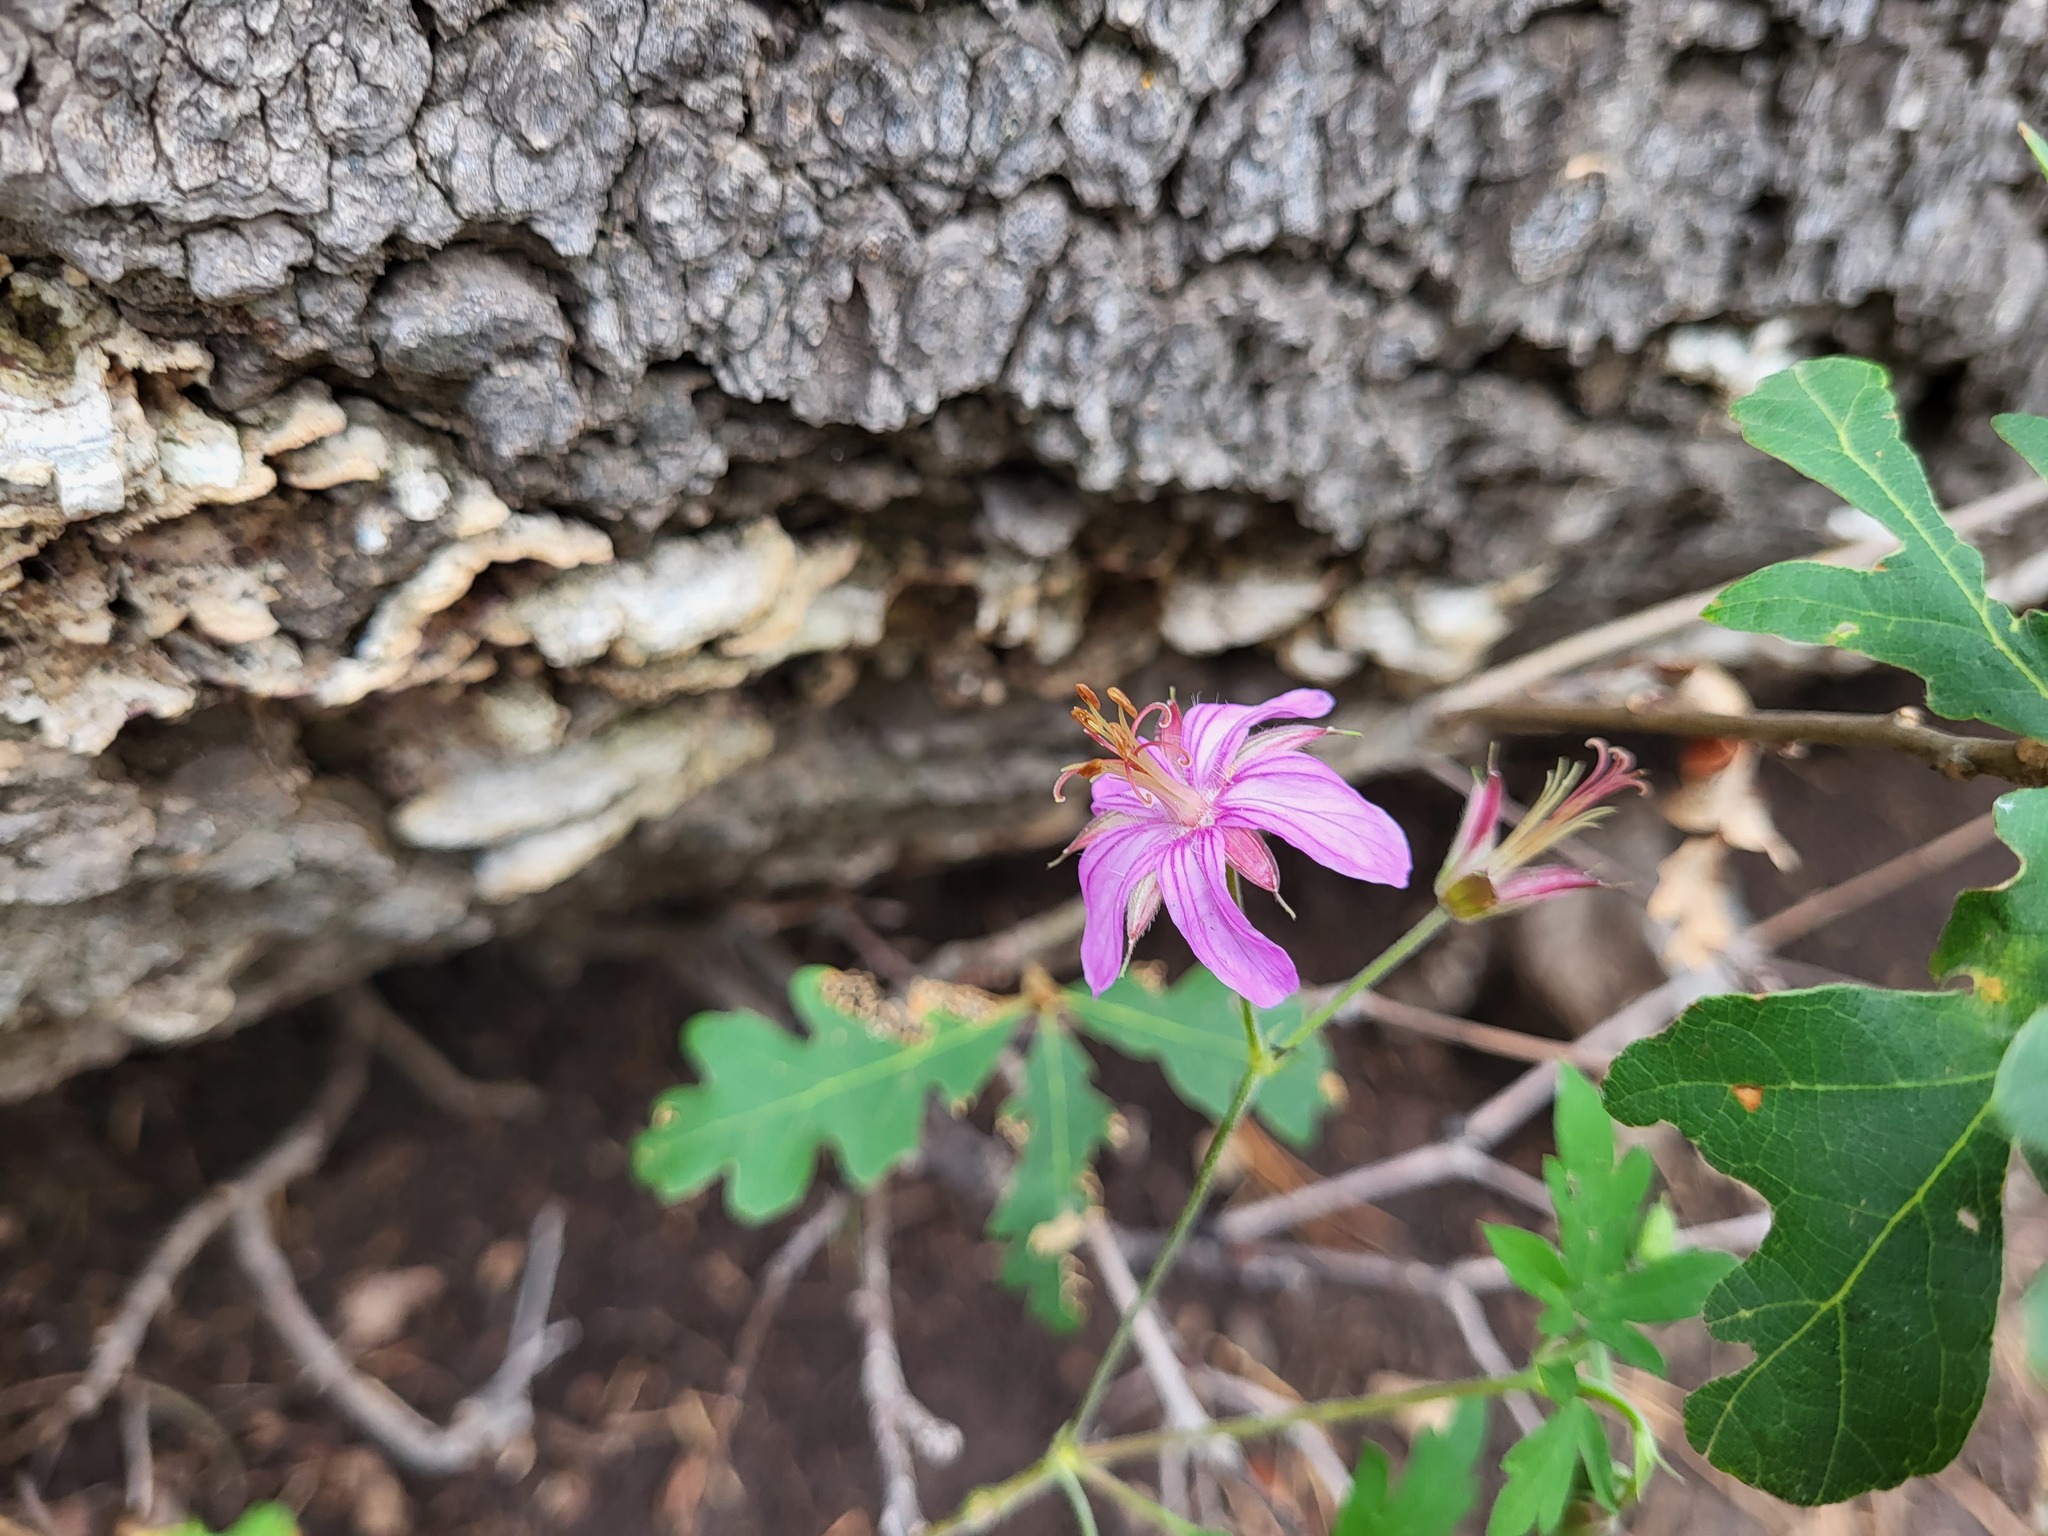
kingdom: Plantae
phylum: Tracheophyta
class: Magnoliopsida
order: Geraniales
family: Geraniaceae
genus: Geranium
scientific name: Geranium caespitosum
